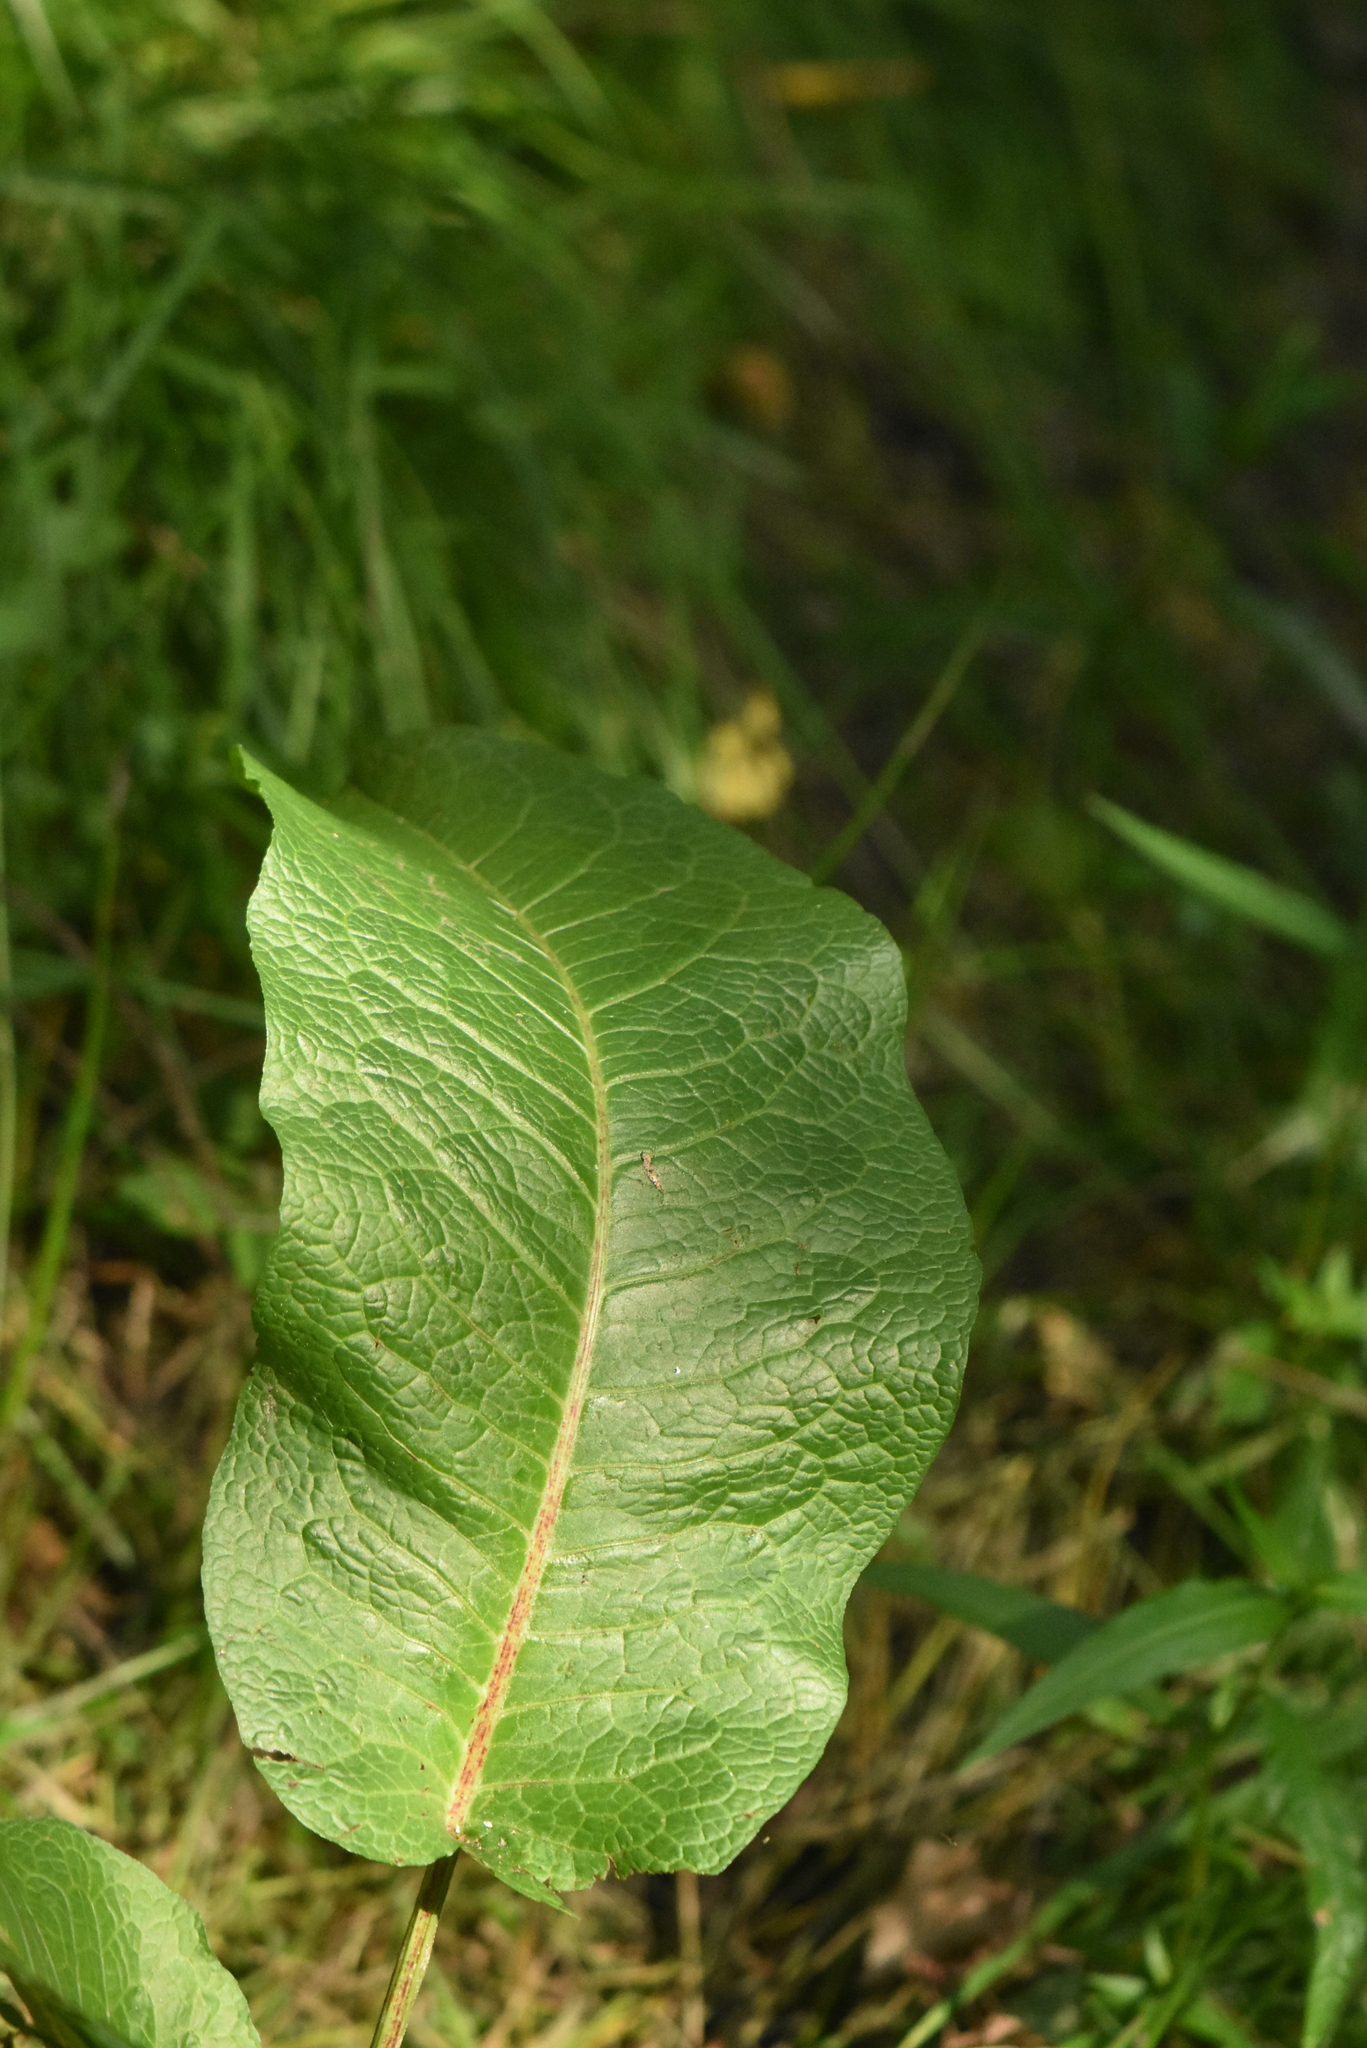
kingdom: Plantae
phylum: Tracheophyta
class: Magnoliopsida
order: Caryophyllales
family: Polygonaceae
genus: Rumex
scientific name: Rumex obtusifolius
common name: Bitter dock
